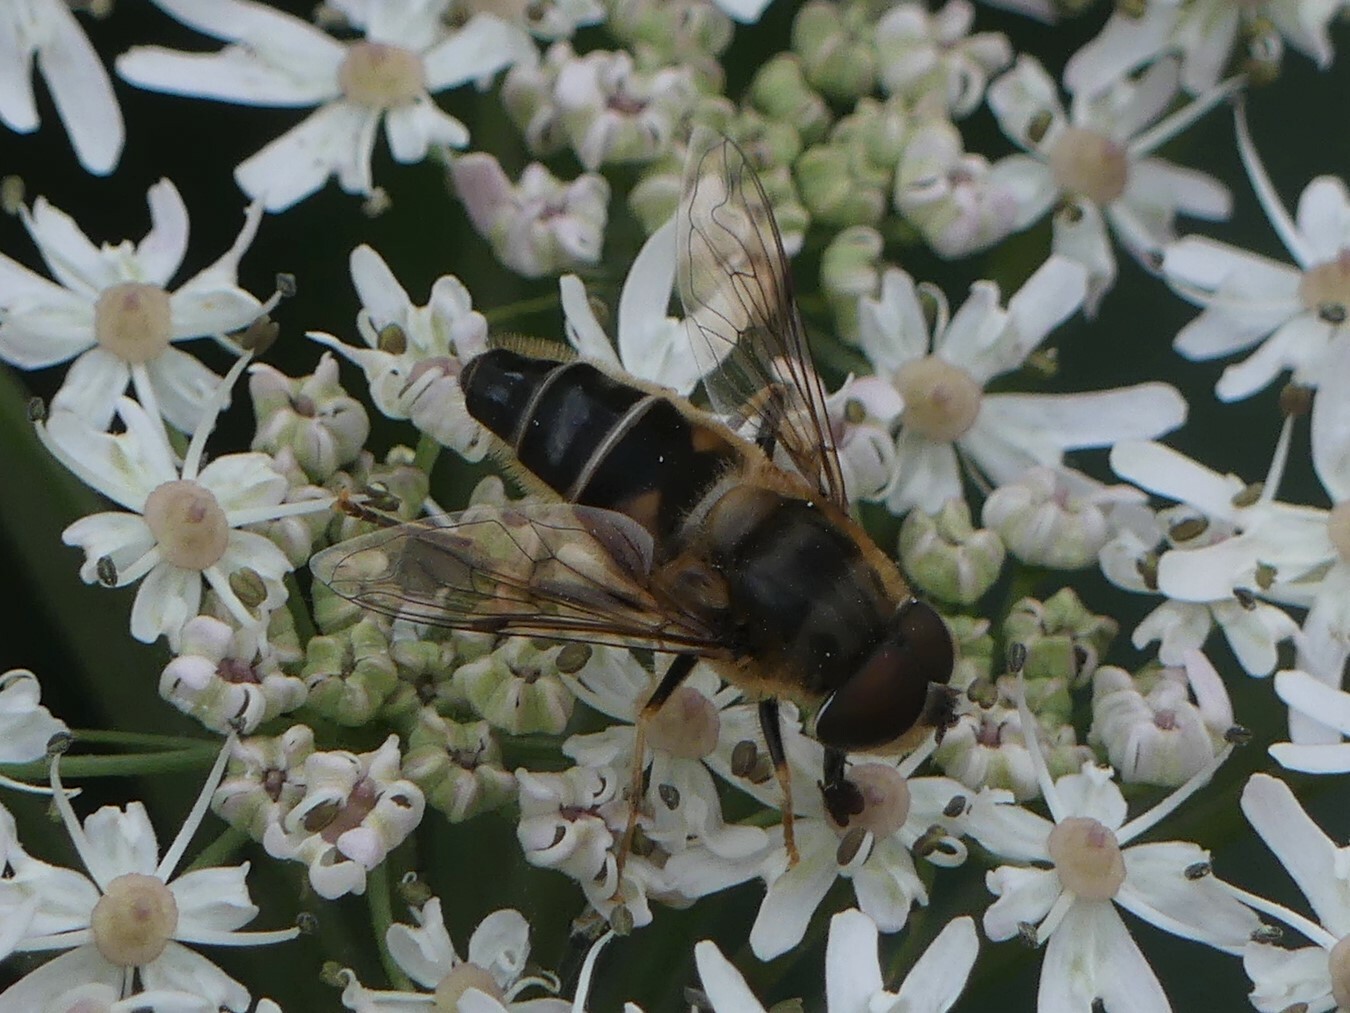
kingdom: Animalia
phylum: Arthropoda
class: Insecta
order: Diptera
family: Syrphidae
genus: Eristalis
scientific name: Eristalis pertinax
